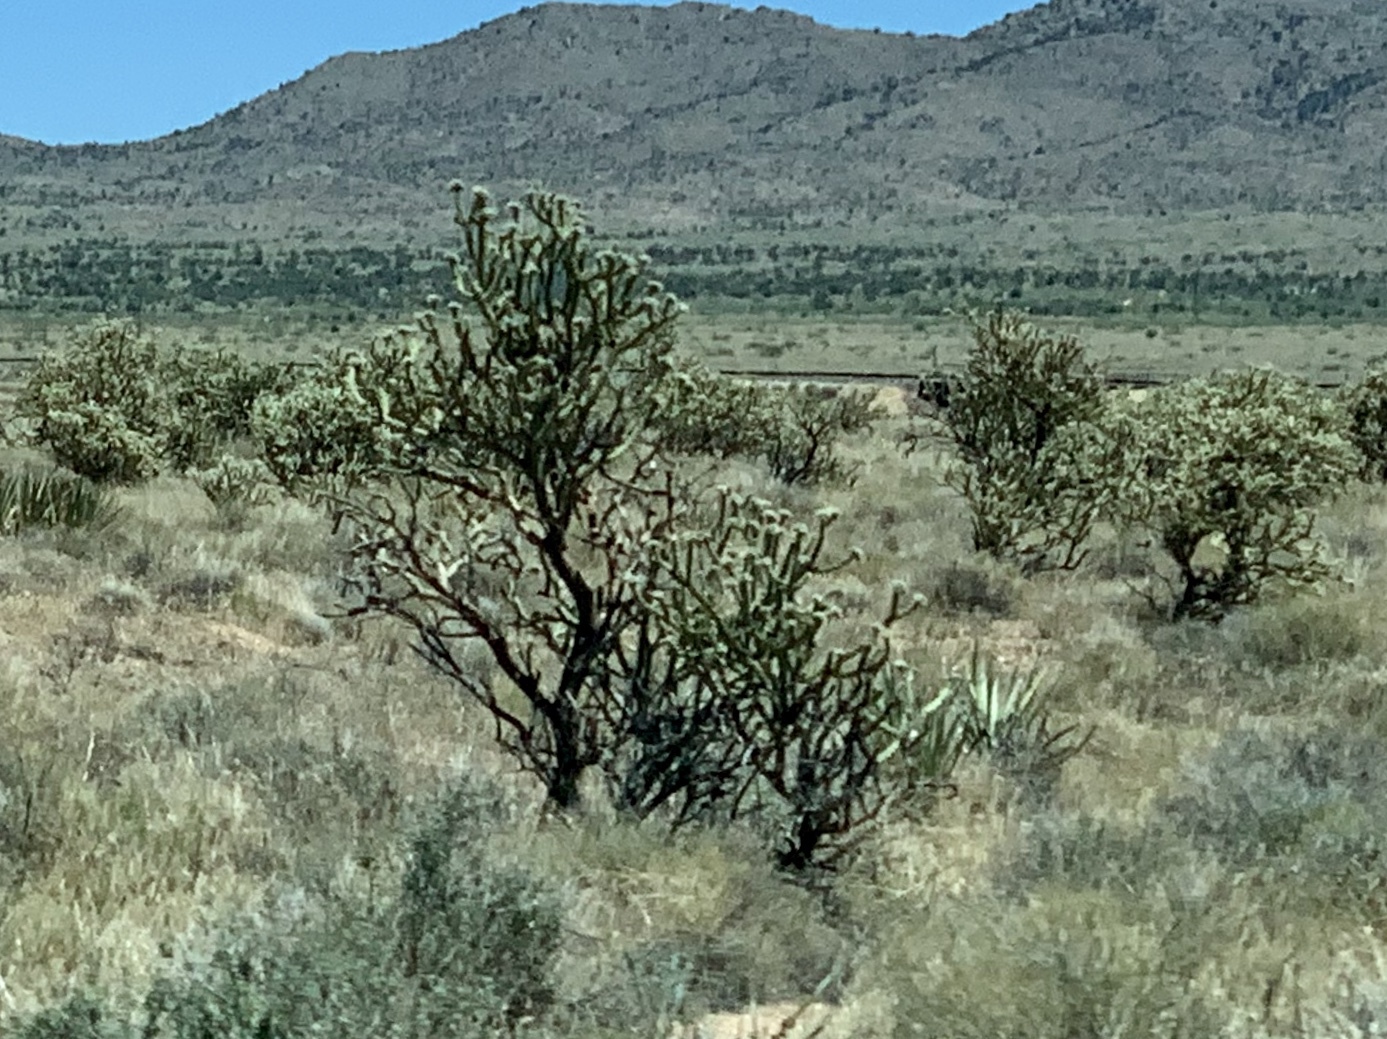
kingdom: Plantae
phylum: Tracheophyta
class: Magnoliopsida
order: Caryophyllales
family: Cactaceae
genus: Cylindropuntia
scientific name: Cylindropuntia acanthocarpa
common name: Buckhorn cholla
